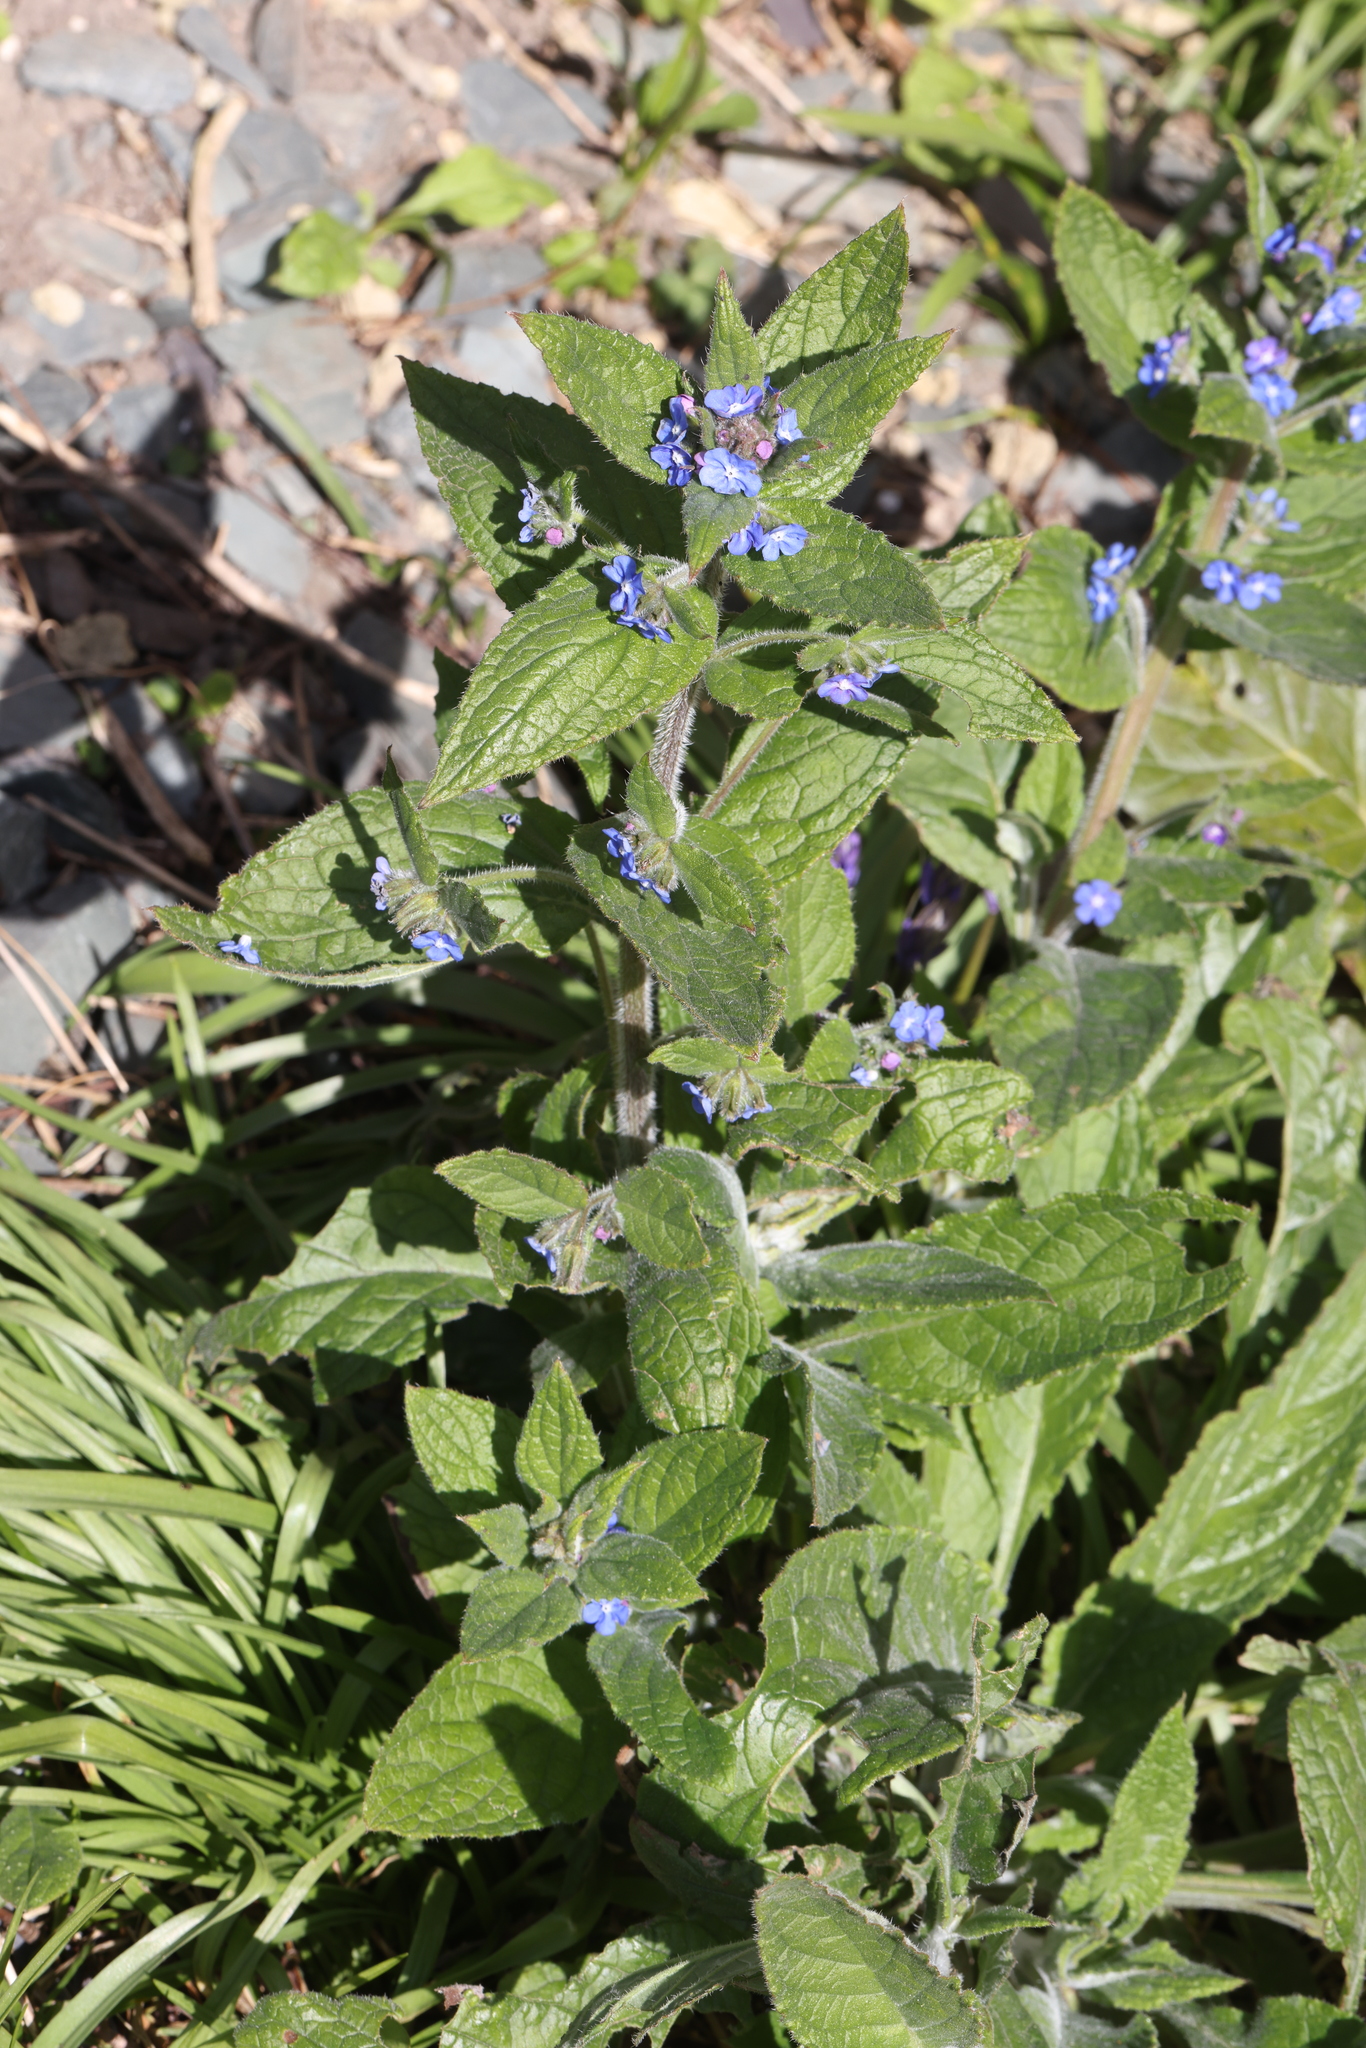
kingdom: Plantae
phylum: Tracheophyta
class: Magnoliopsida
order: Boraginales
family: Boraginaceae
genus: Pentaglottis
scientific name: Pentaglottis sempervirens
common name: Green alkanet
